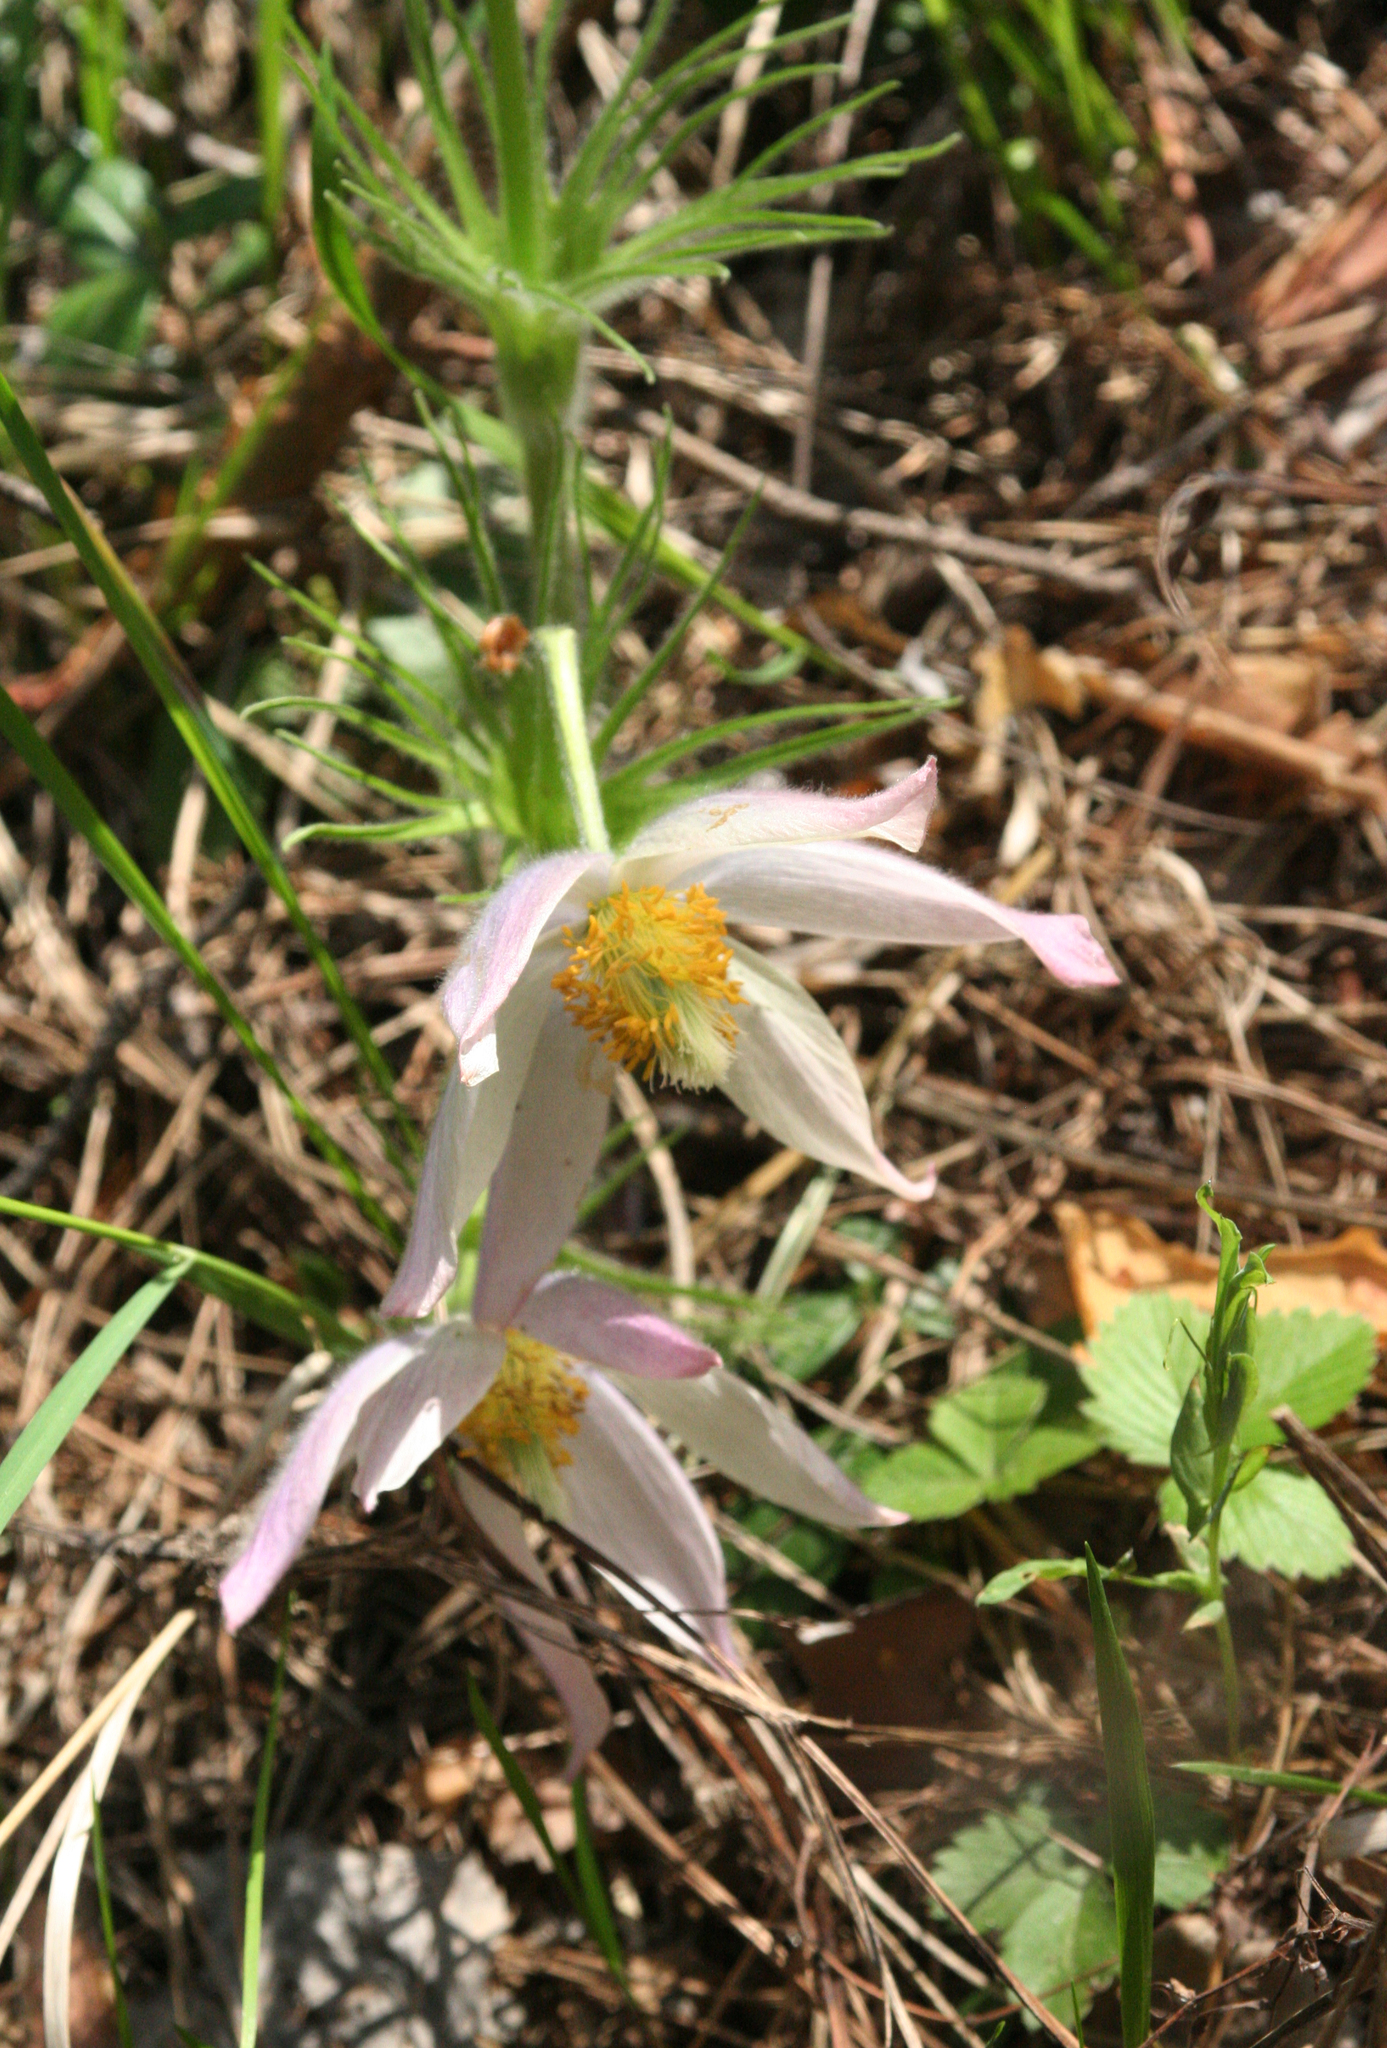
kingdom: Plantae
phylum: Tracheophyta
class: Magnoliopsida
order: Ranunculales
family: Ranunculaceae
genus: Pulsatilla
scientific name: Pulsatilla patens
